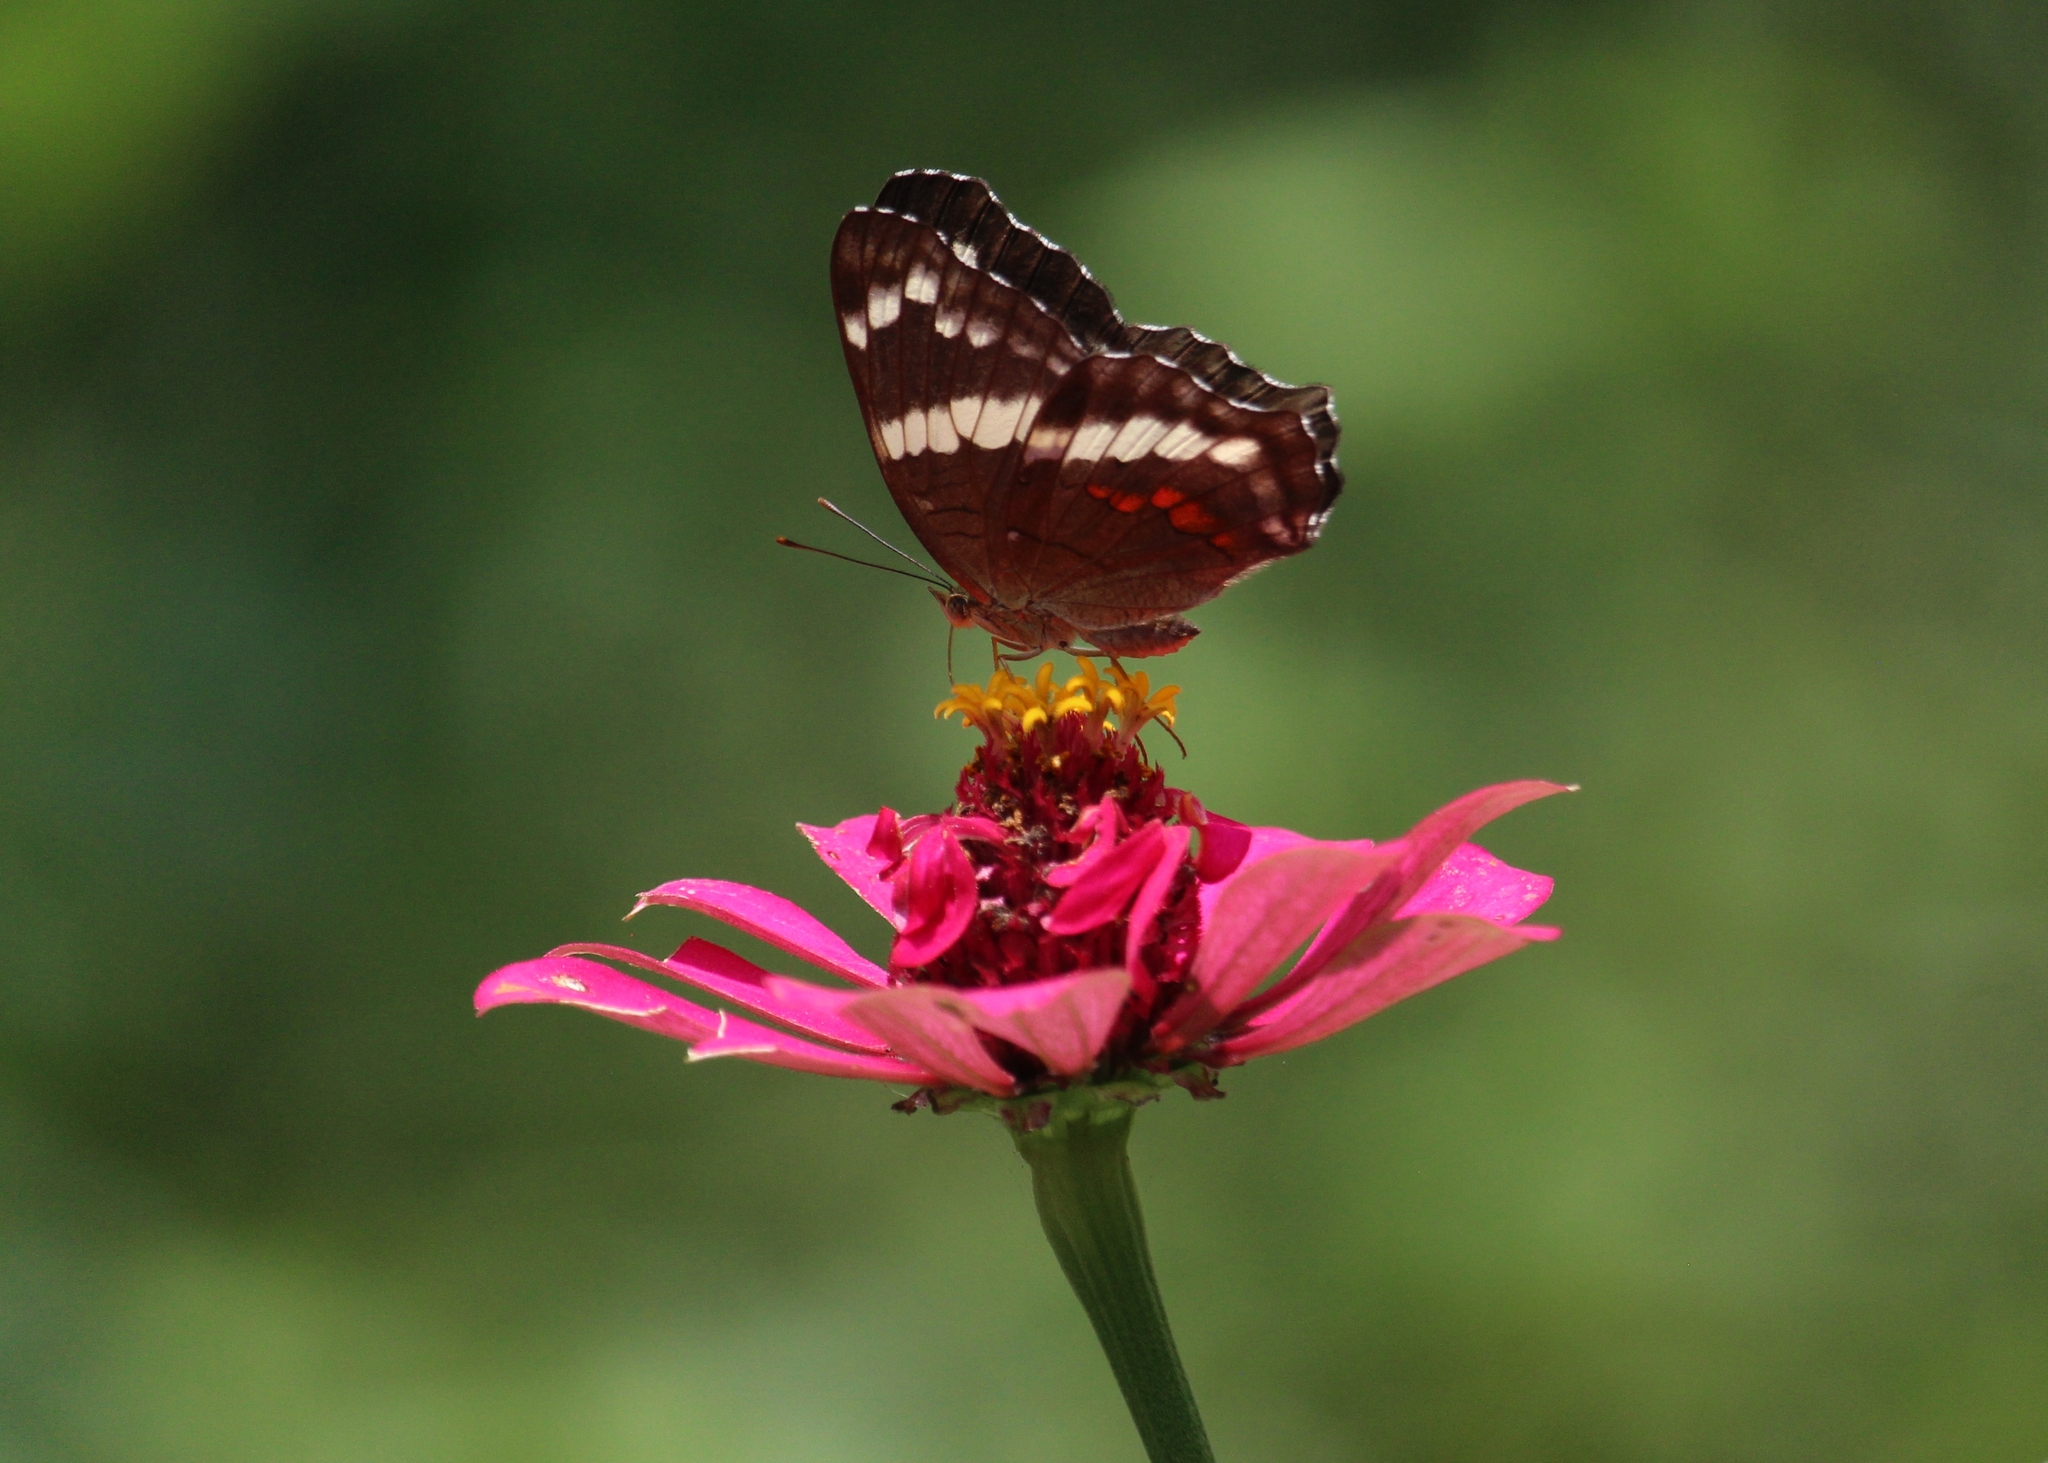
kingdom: Animalia
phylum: Arthropoda
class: Insecta
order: Lepidoptera
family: Nymphalidae
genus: Anartia
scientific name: Anartia fatima
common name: Banded peacock
